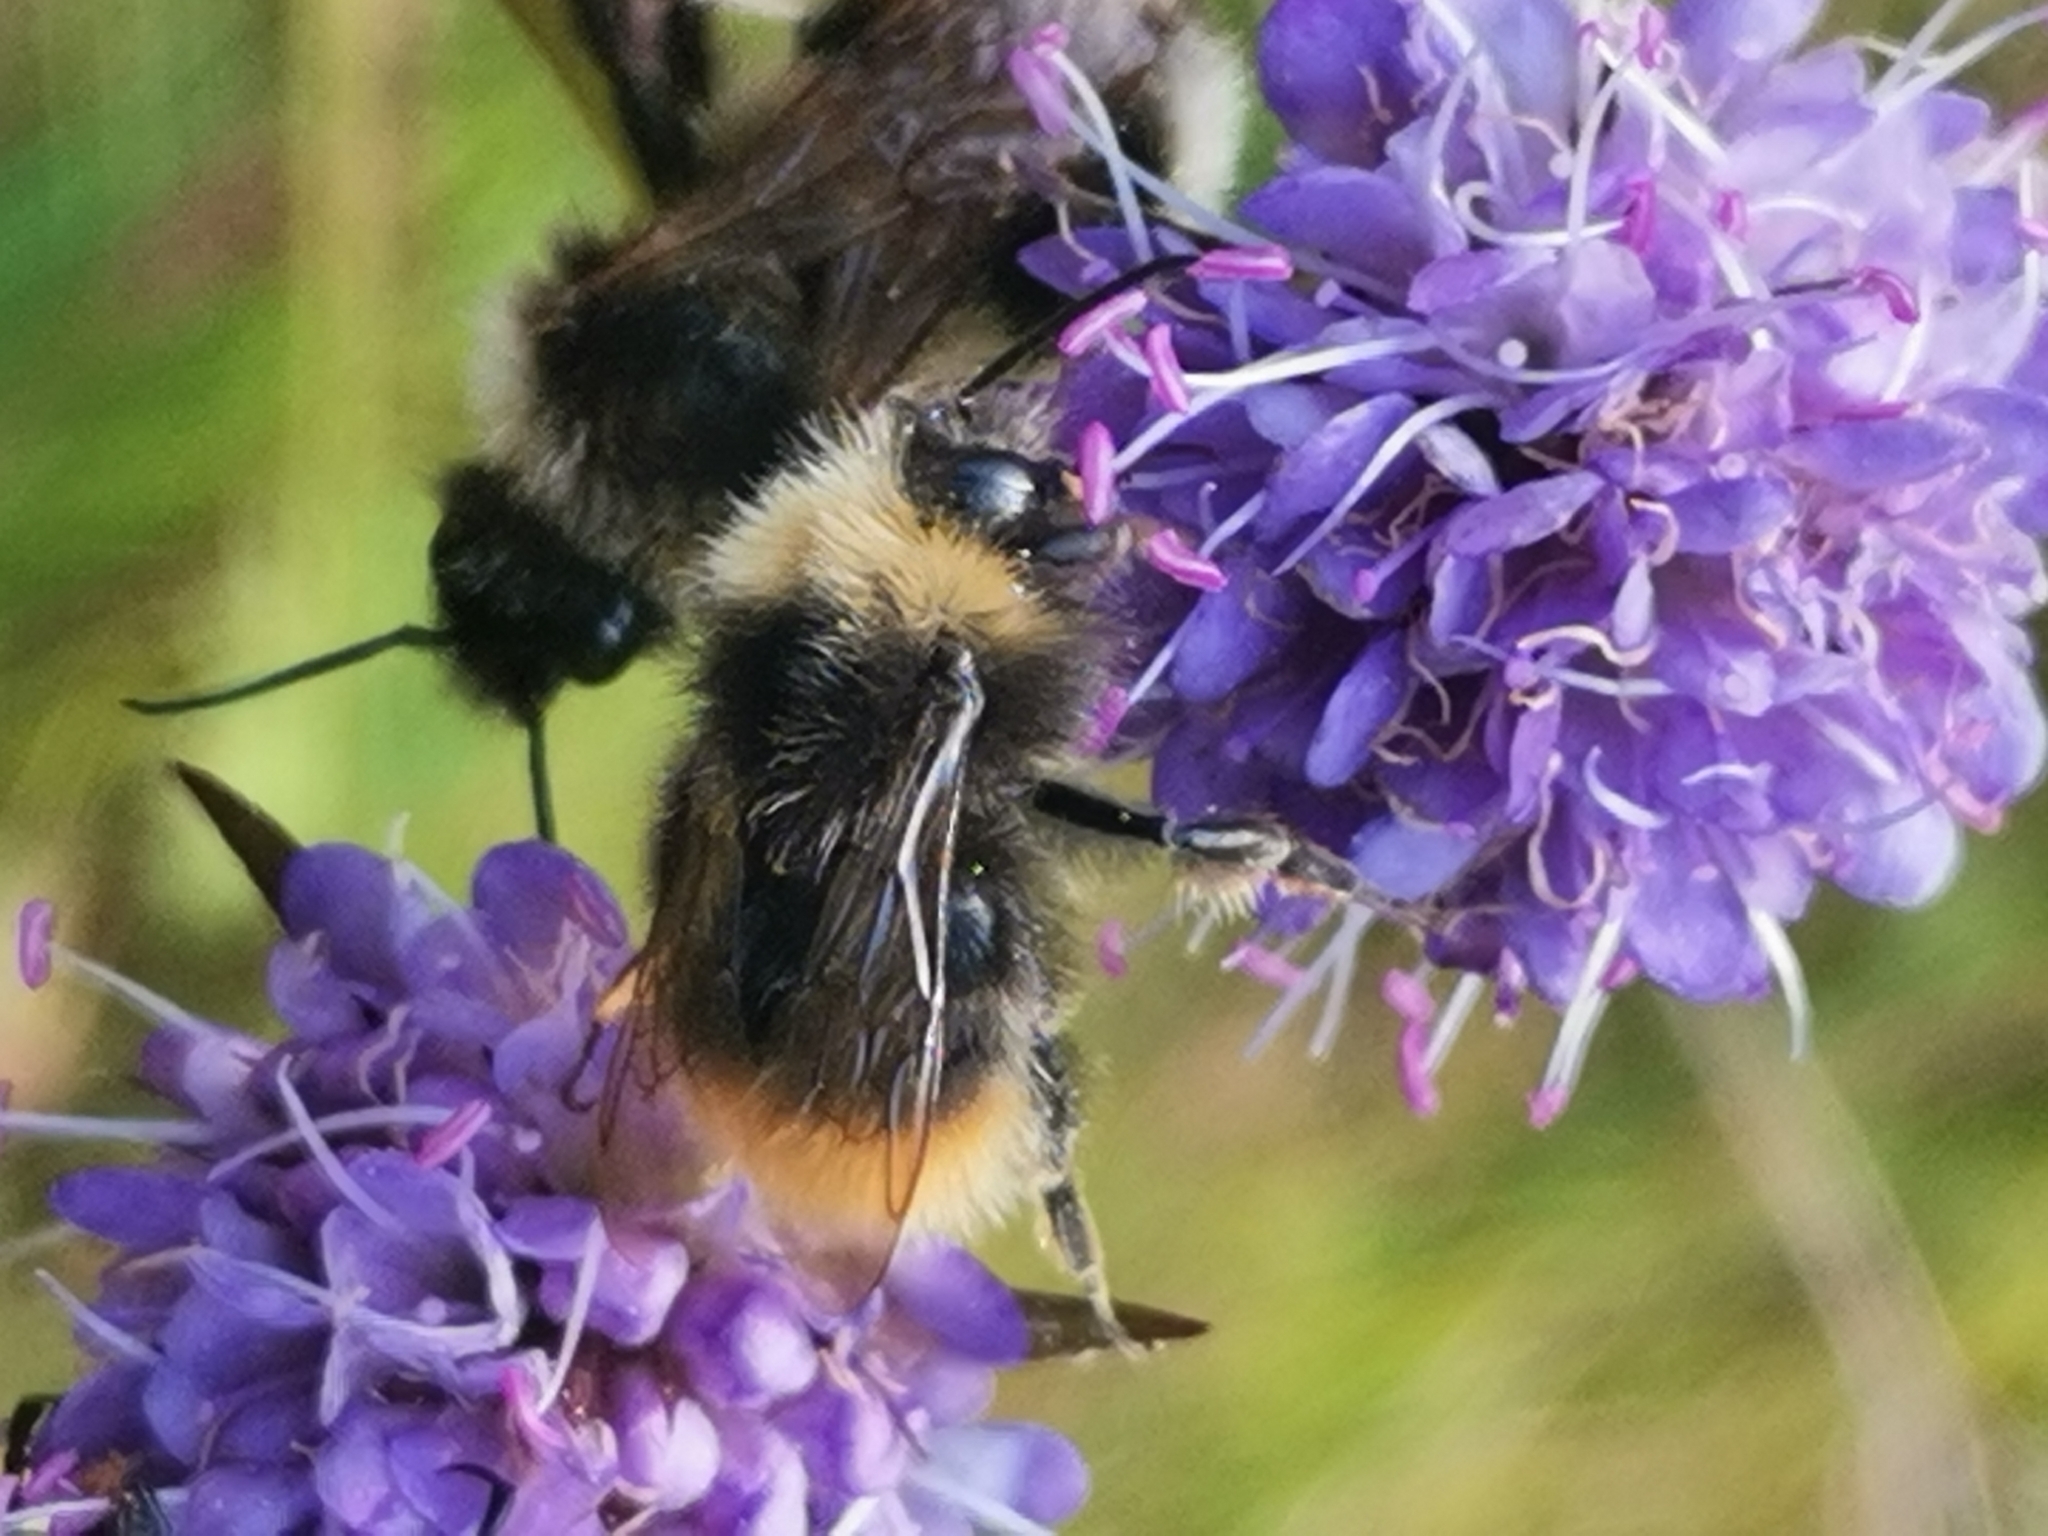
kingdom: Animalia
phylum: Arthropoda
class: Insecta
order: Hymenoptera
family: Apidae
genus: Bombus
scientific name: Bombus pratorum
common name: Early humble-bee
